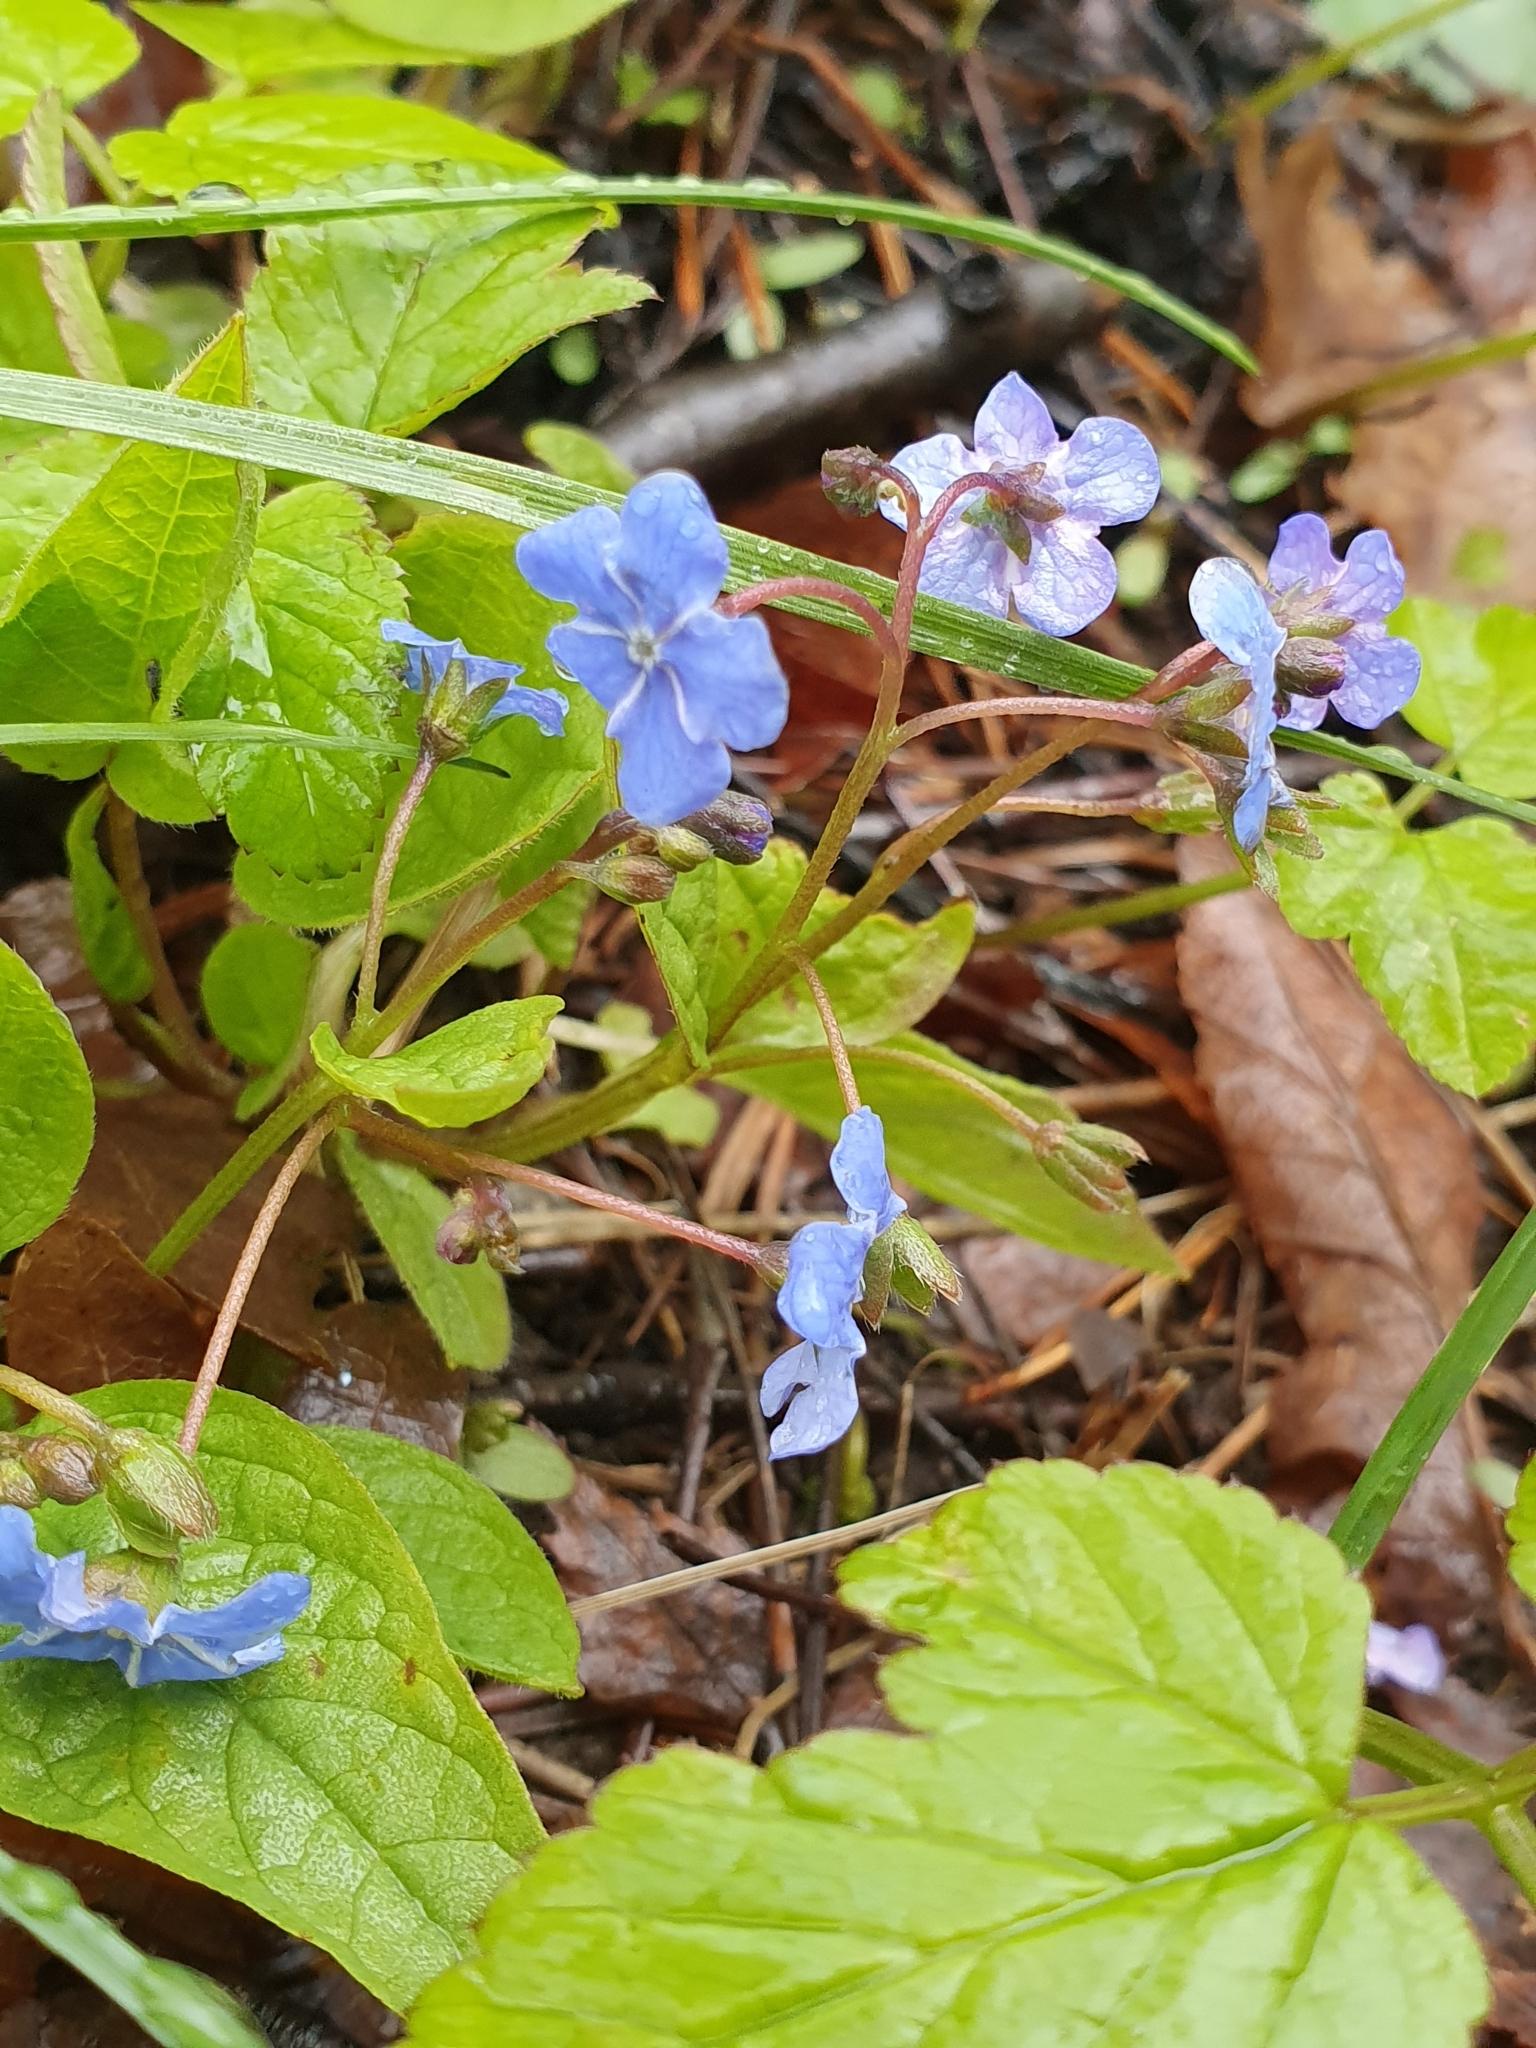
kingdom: Plantae
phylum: Tracheophyta
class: Magnoliopsida
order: Boraginales
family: Boraginaceae
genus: Omphalodes
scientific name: Omphalodes verna
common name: Blue-eyed-mary
